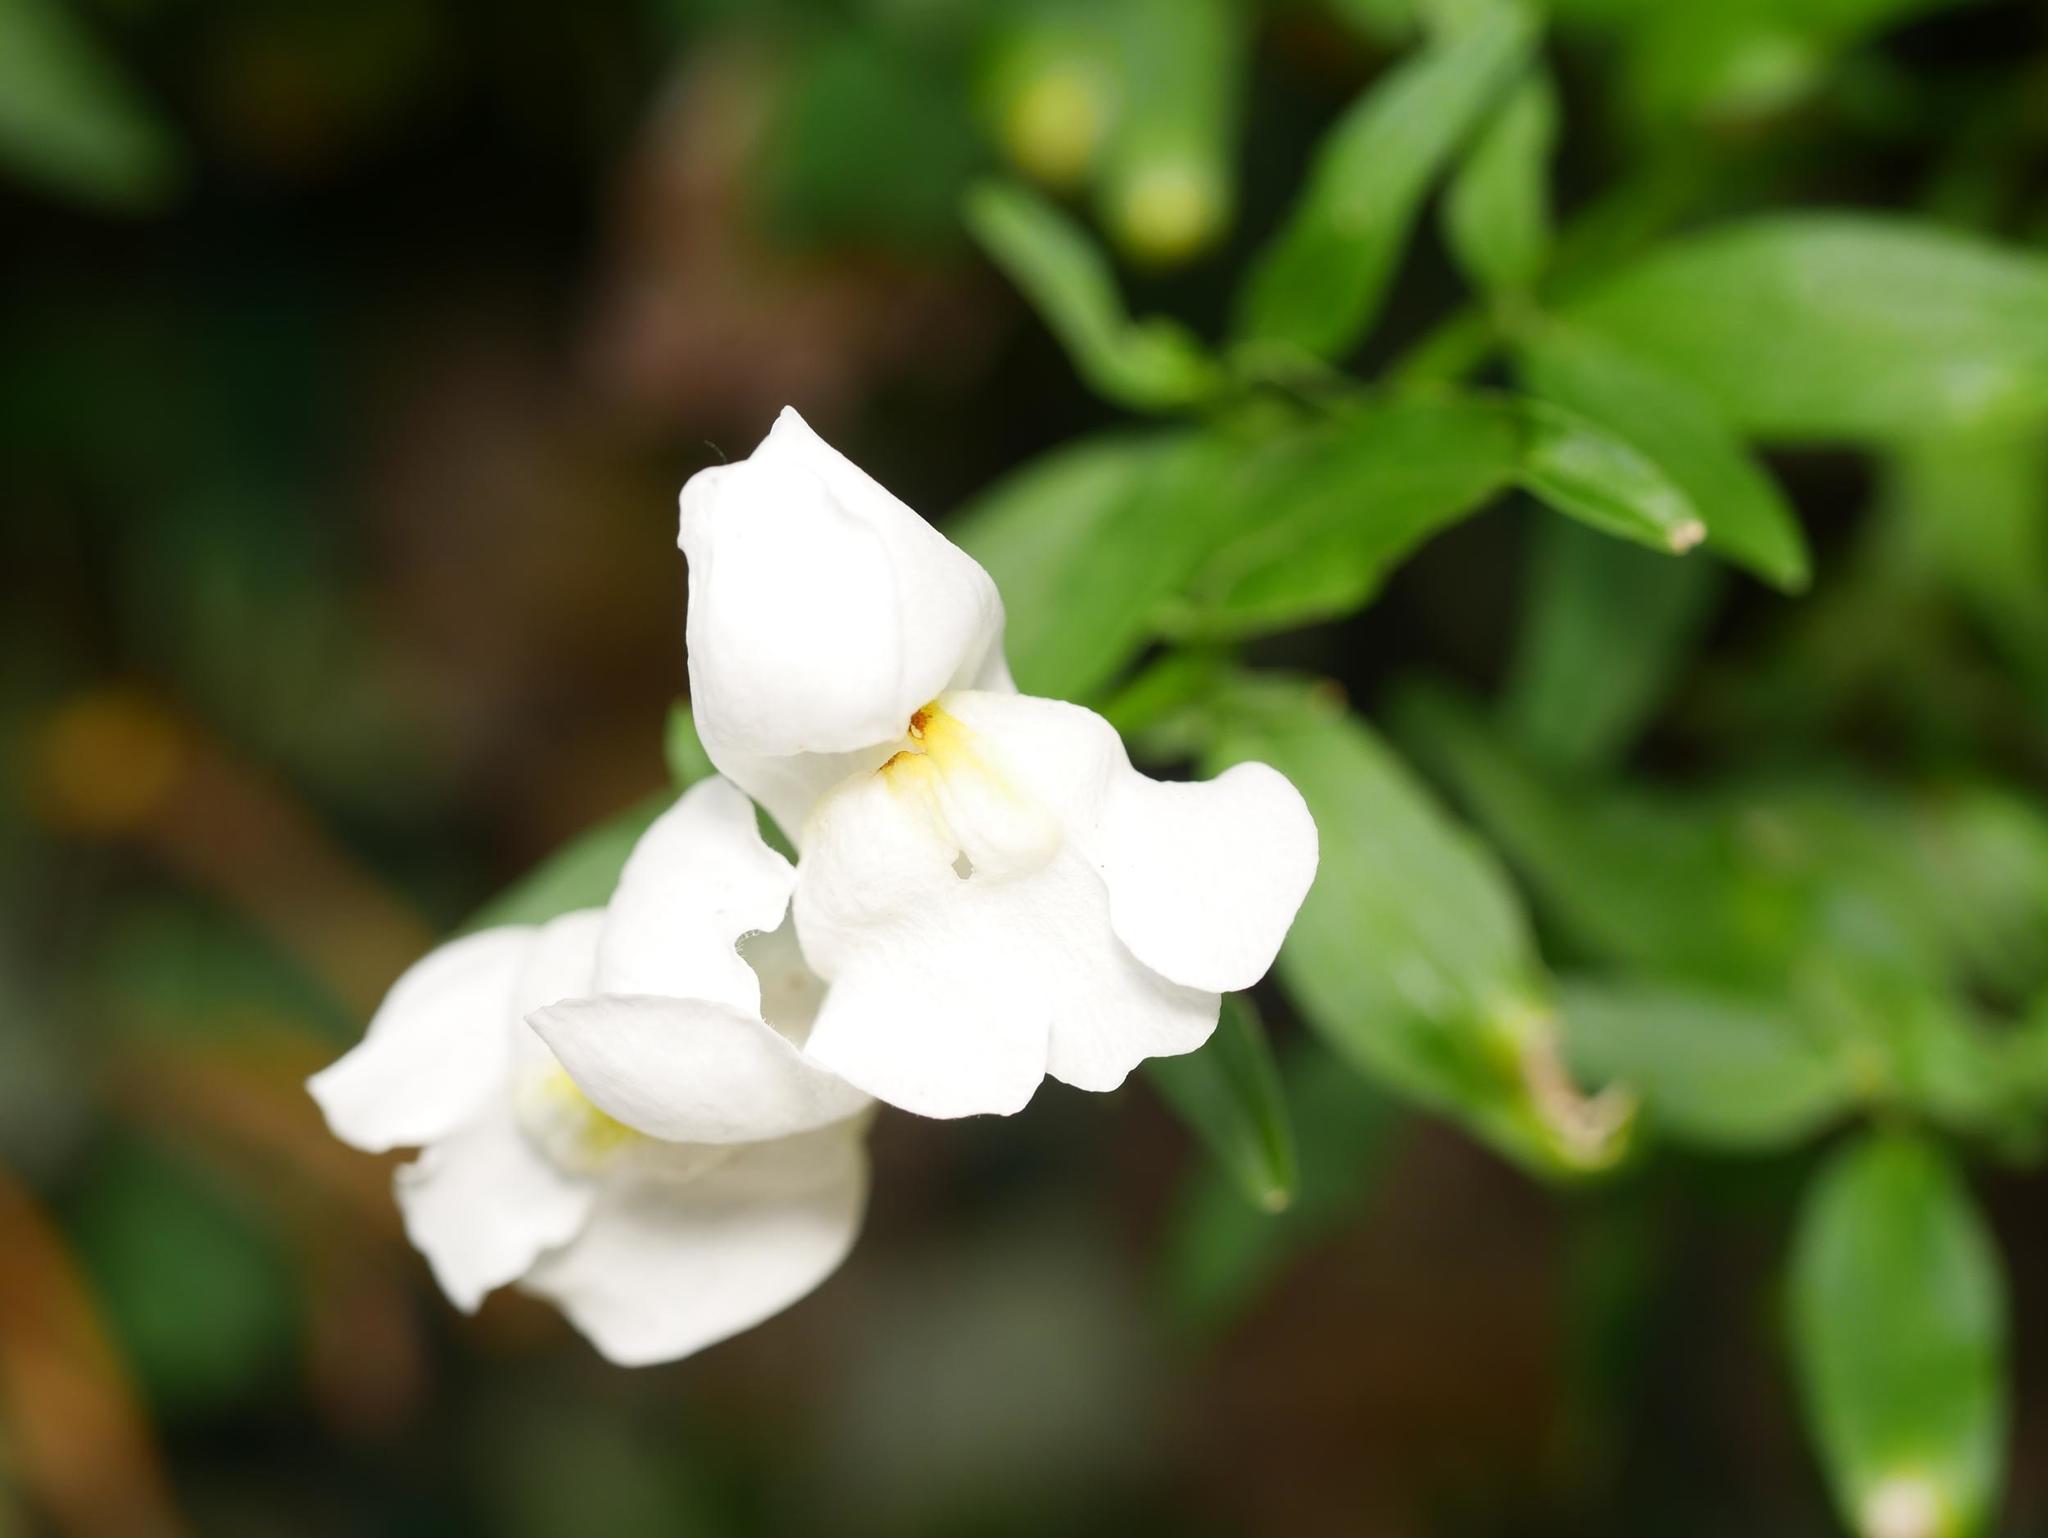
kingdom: Plantae
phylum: Tracheophyta
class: Magnoliopsida
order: Lamiales
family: Plantaginaceae
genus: Antirrhinum
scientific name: Antirrhinum majus
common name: Snapdragon
